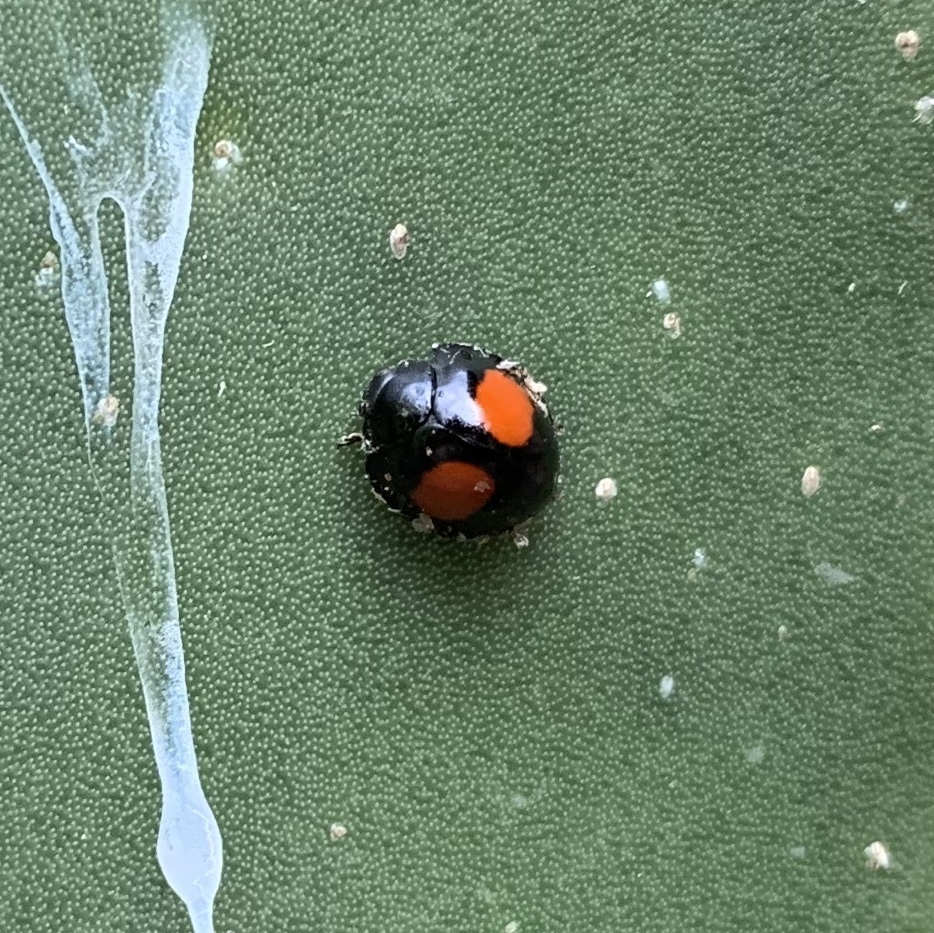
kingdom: Animalia
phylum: Arthropoda
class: Insecta
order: Coleoptera
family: Coccinellidae
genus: Chilocorus
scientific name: Chilocorus cacti
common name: Cactus lady beetle
